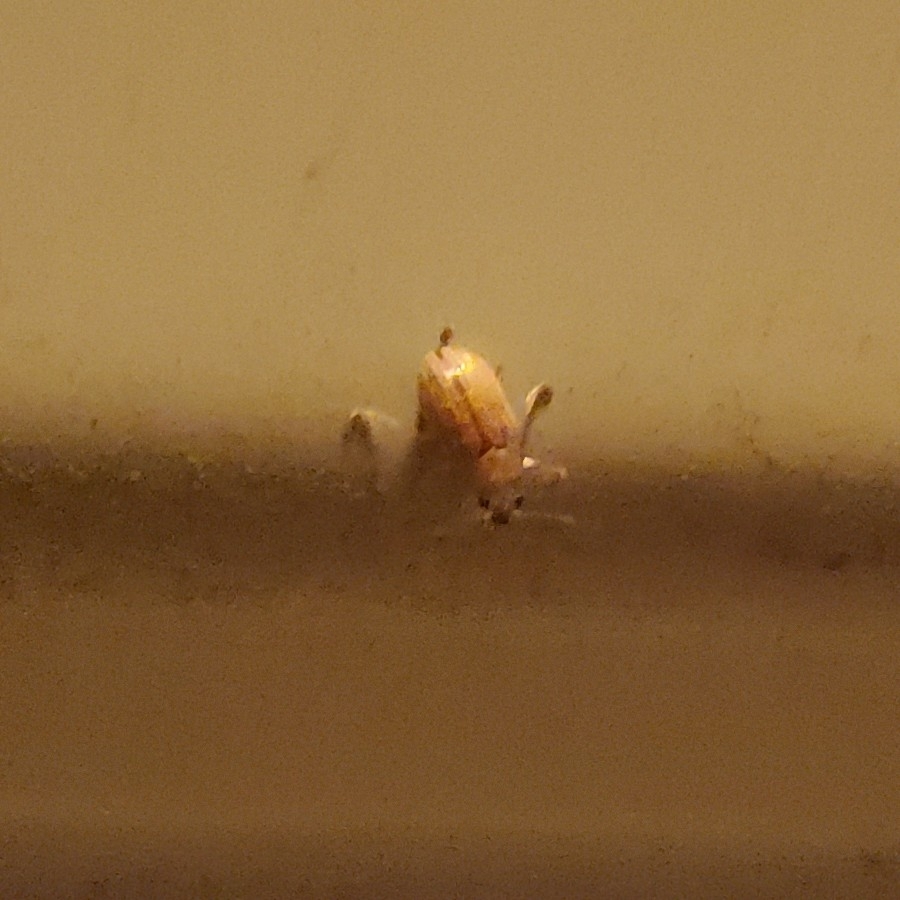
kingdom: Animalia
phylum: Arthropoda
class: Insecta
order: Coleoptera
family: Chrysomelidae
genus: Colaspis
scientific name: Colaspis brunnea
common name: Grape colaspis
